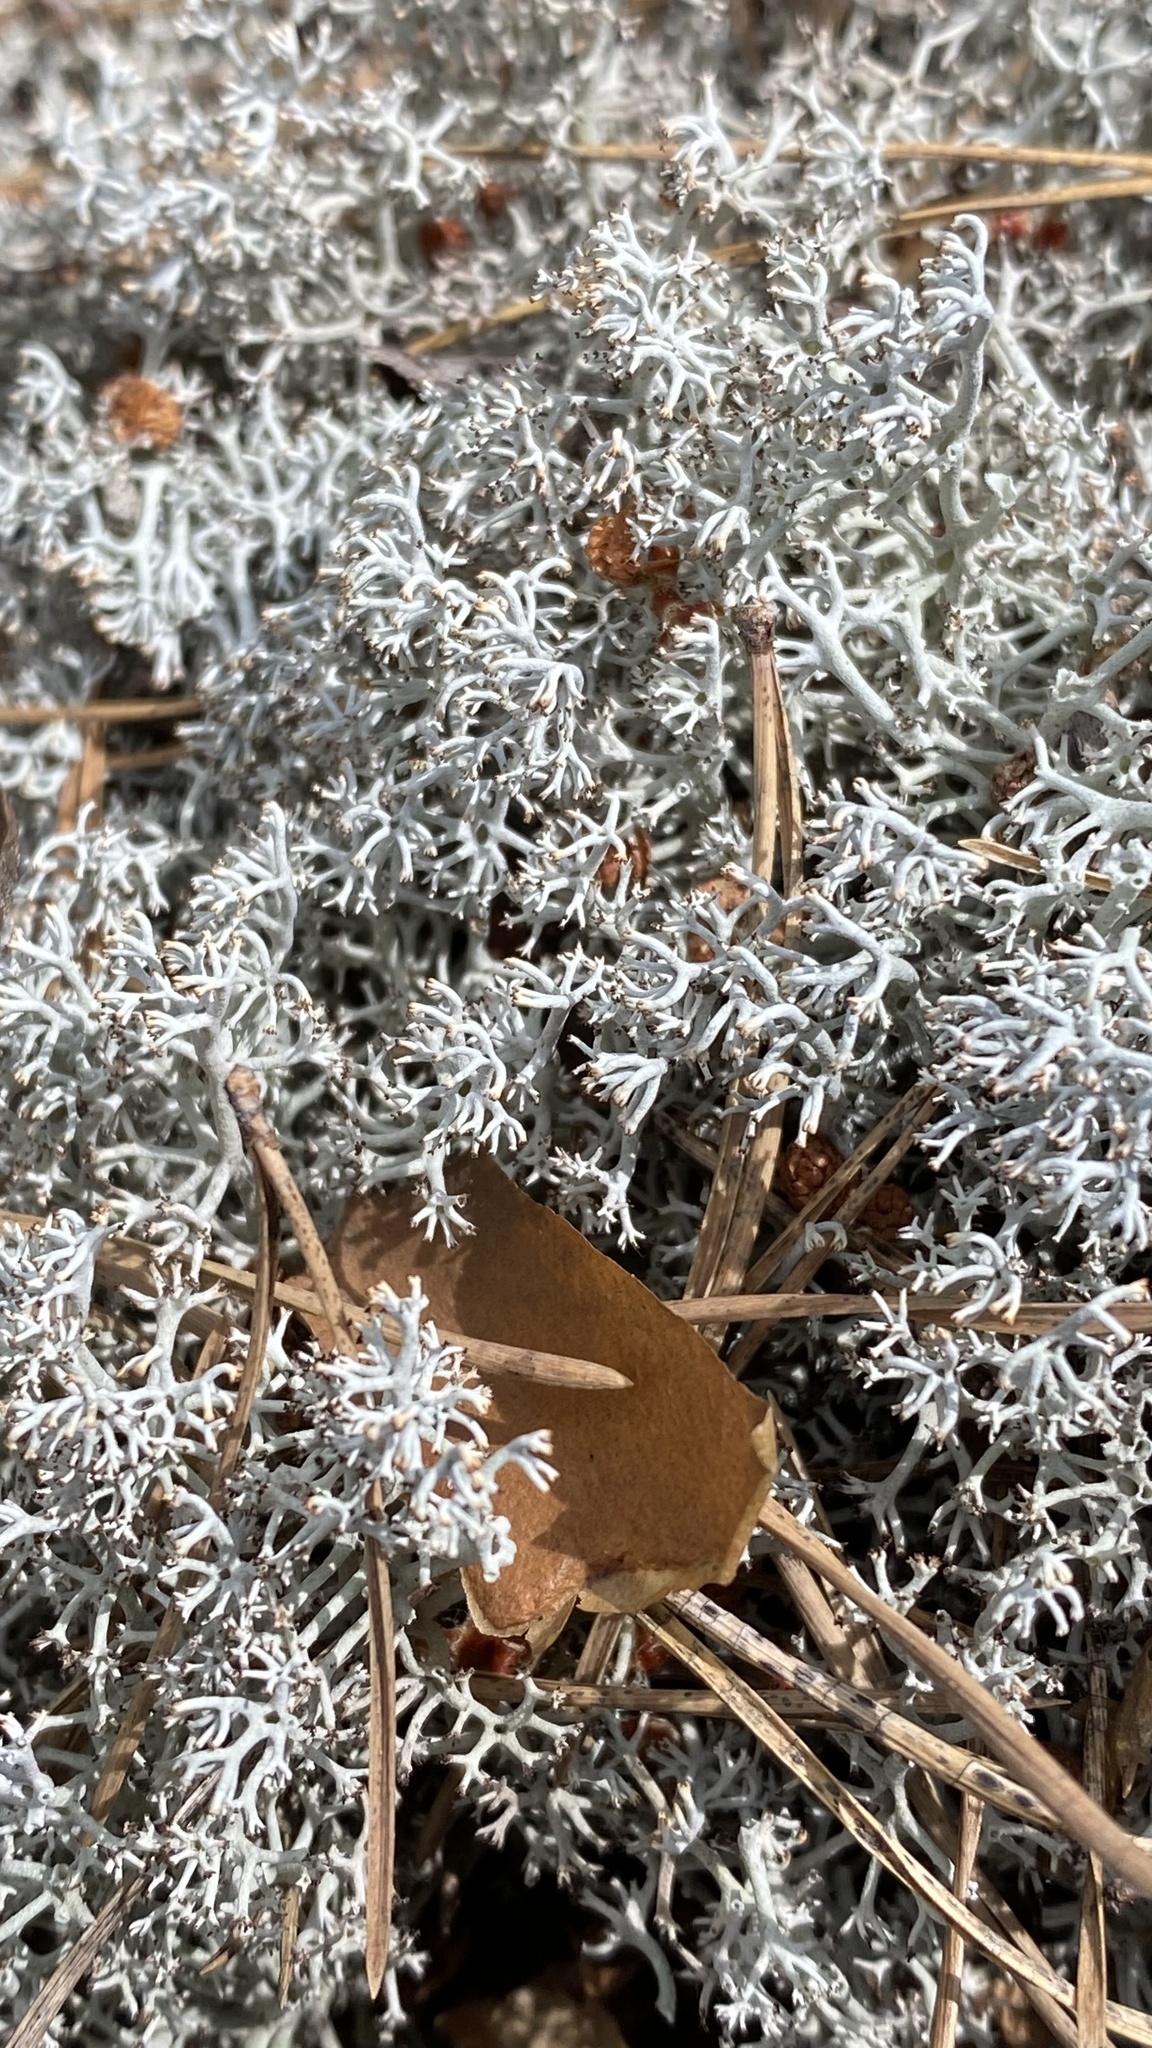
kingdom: Fungi
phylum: Ascomycota
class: Lecanoromycetes
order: Lecanorales
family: Cladoniaceae
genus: Cladonia
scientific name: Cladonia rangiferina
